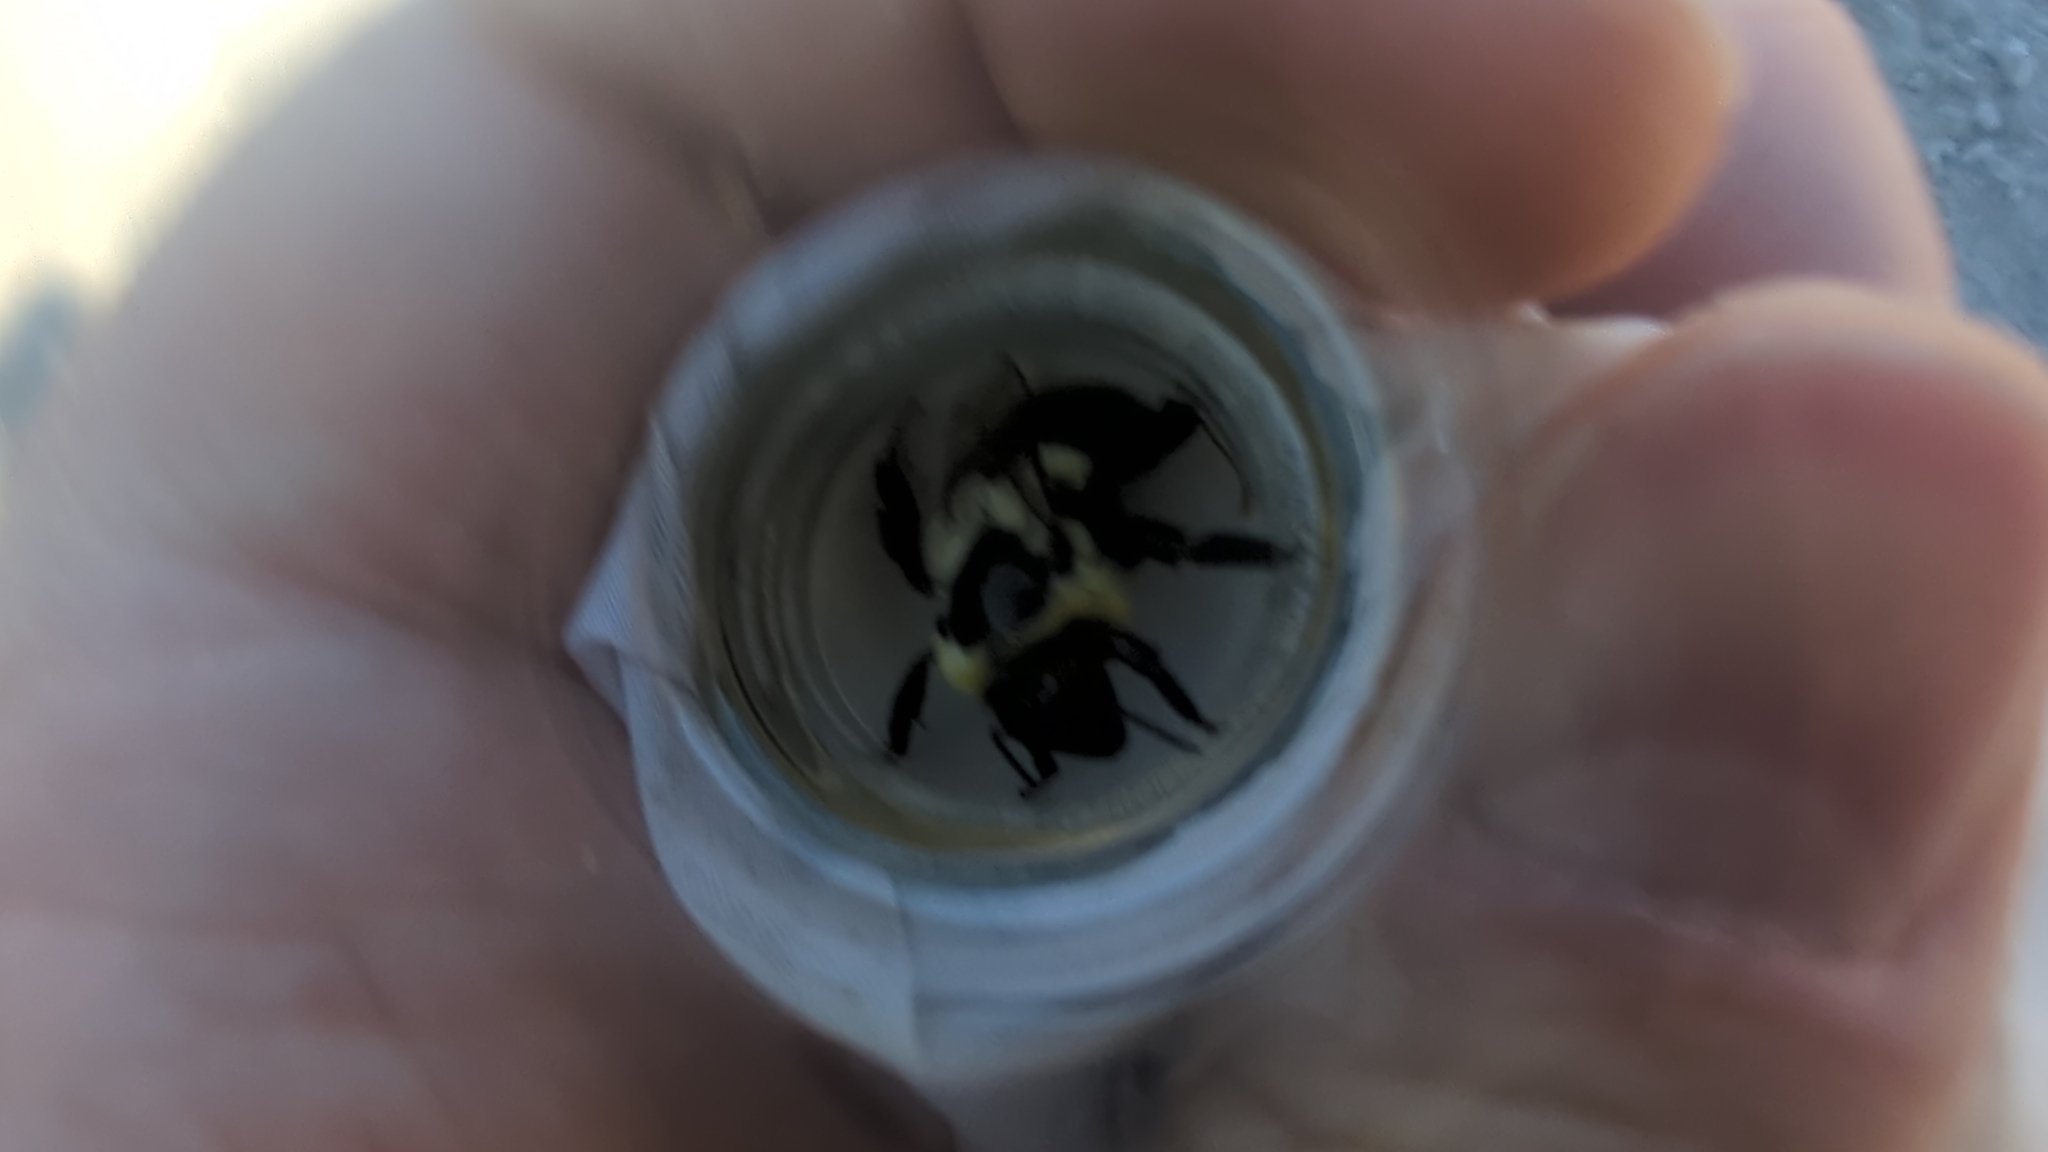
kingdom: Animalia
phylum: Arthropoda
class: Insecta
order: Hymenoptera
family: Apidae
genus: Bombus
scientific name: Bombus impatiens
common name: Common eastern bumble bee
